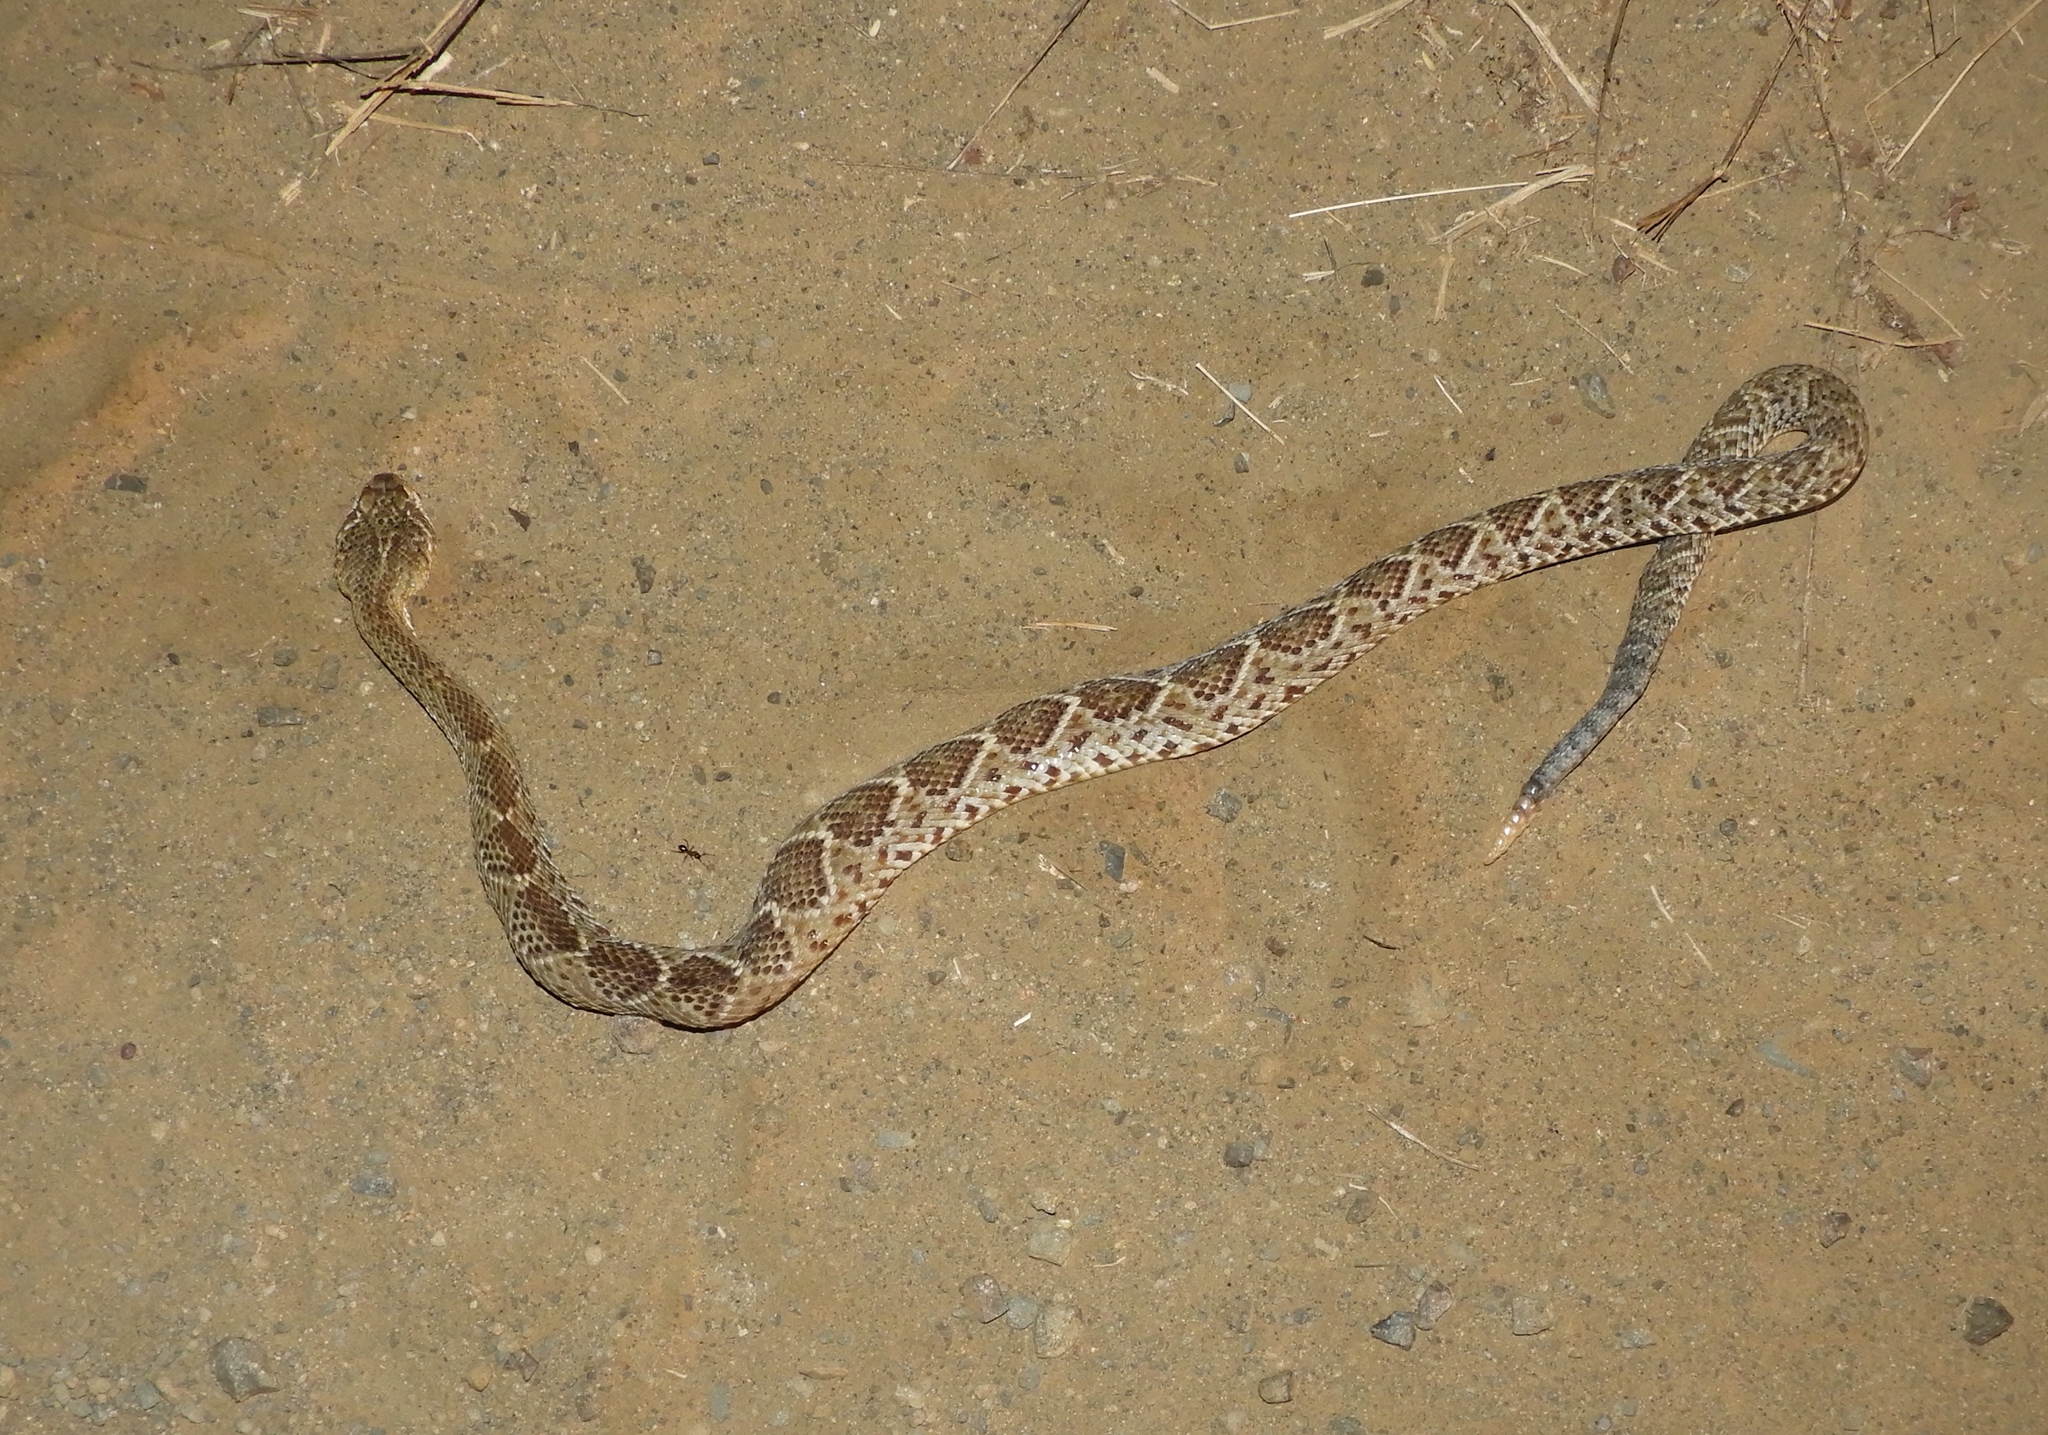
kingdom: Animalia
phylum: Chordata
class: Squamata
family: Viperidae
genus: Crotalus
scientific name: Crotalus basiliscus
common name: Basilisk rattlesnake
